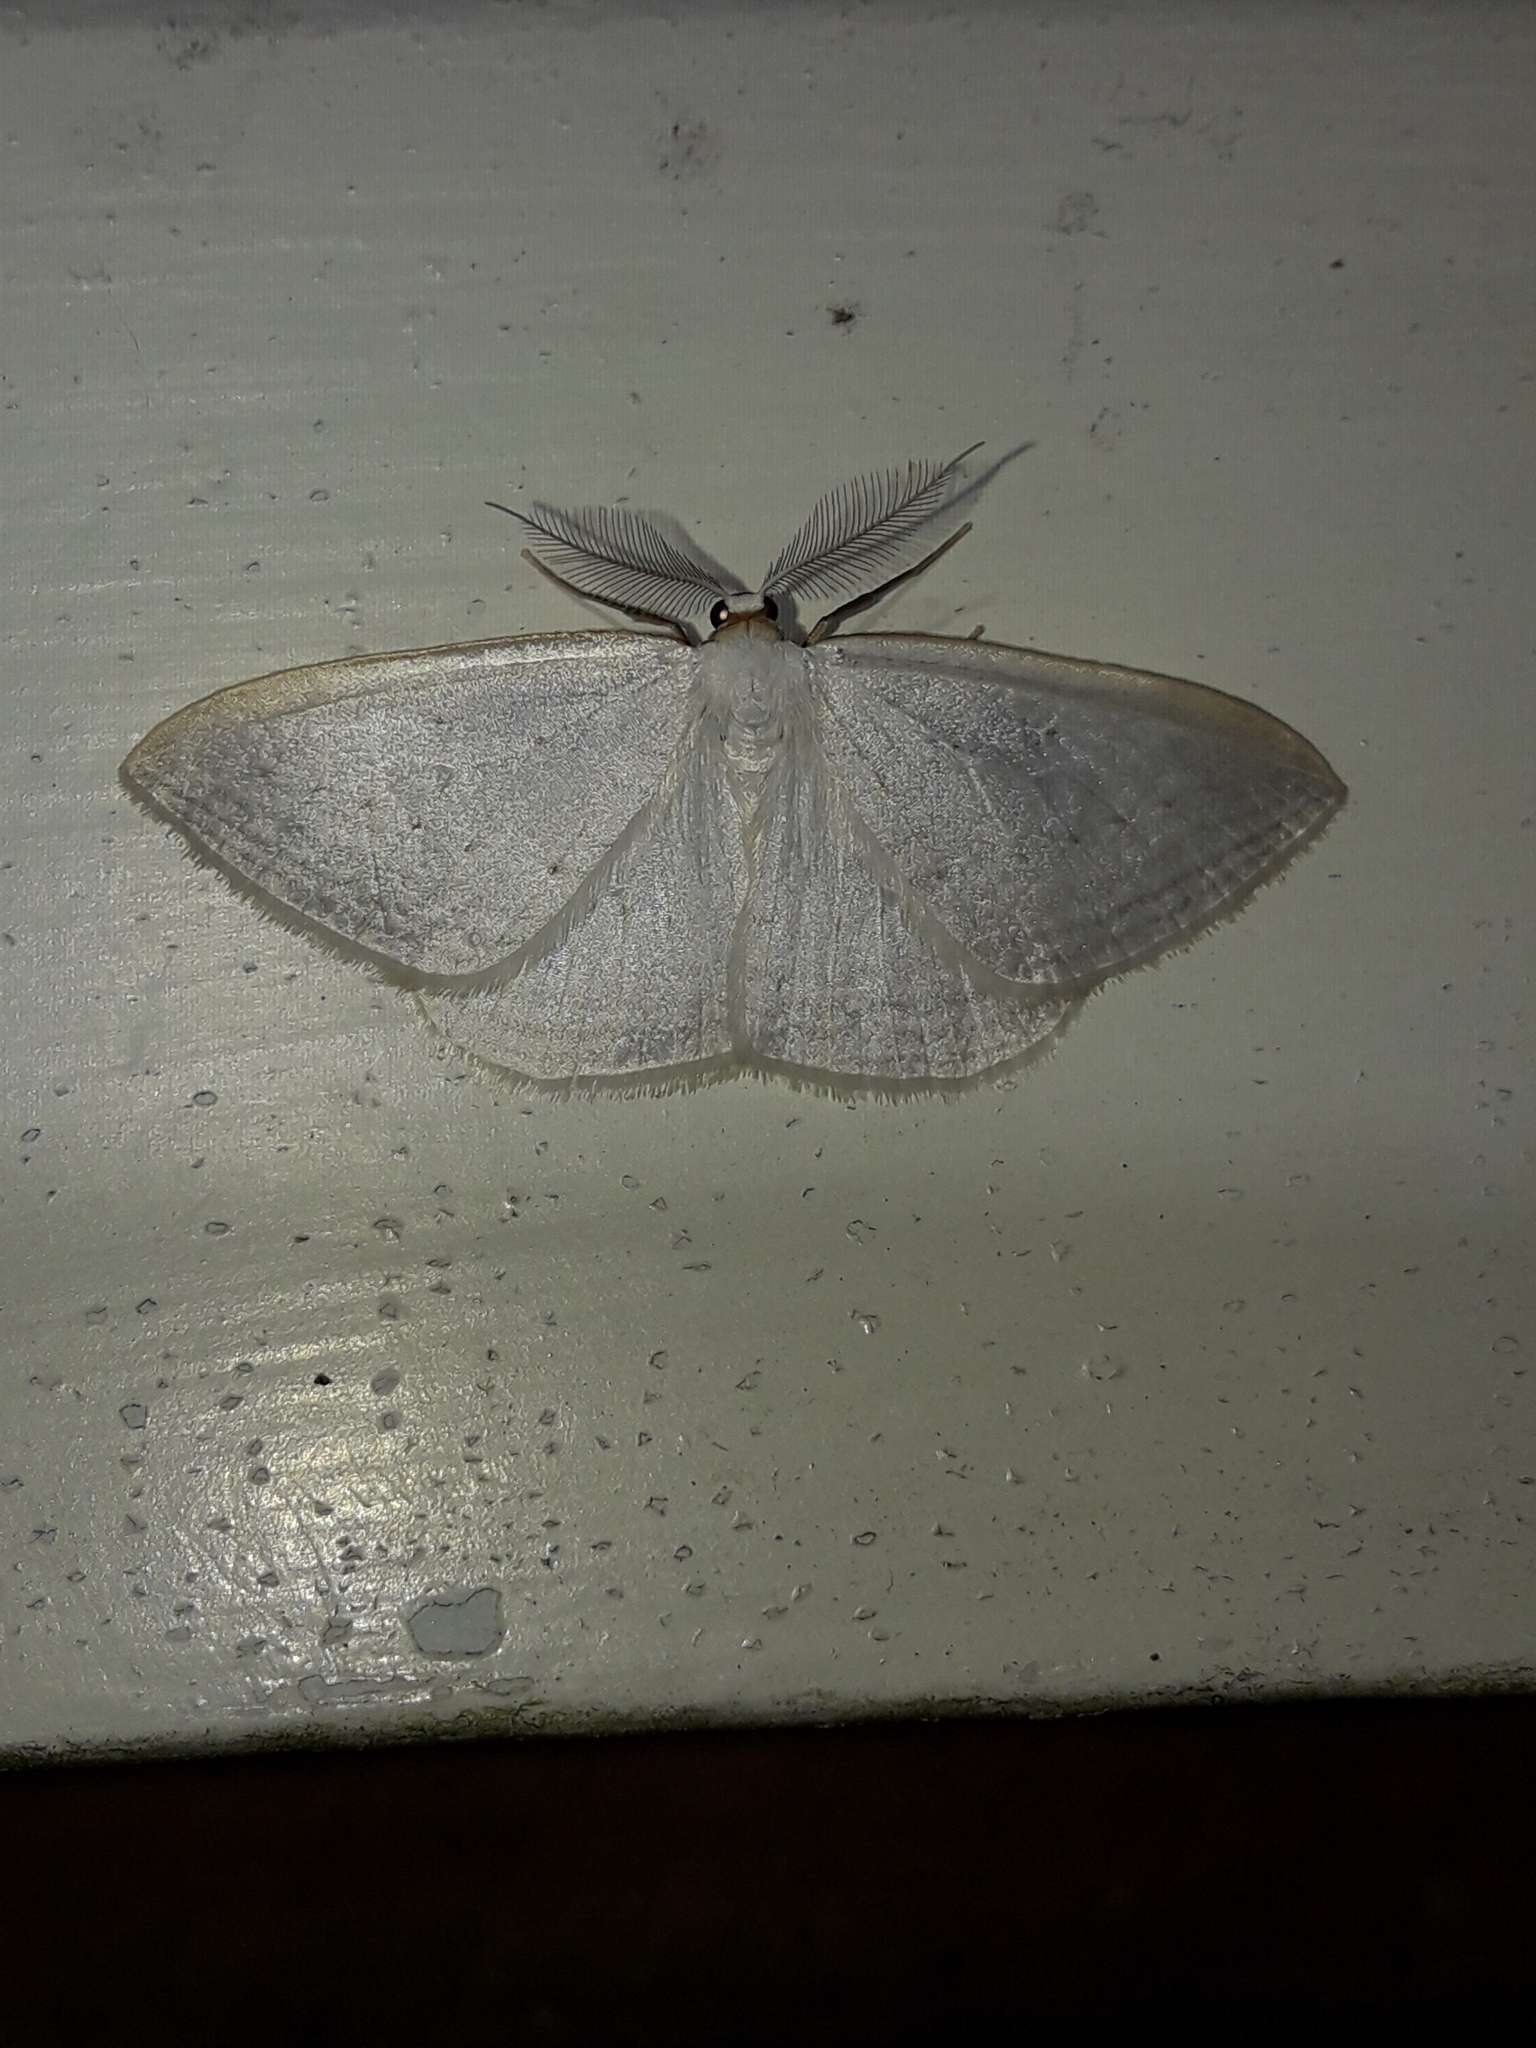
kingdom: Animalia
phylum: Arthropoda
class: Insecta
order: Lepidoptera
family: Geometridae
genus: Orthoclydon
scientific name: Orthoclydon praefectata
